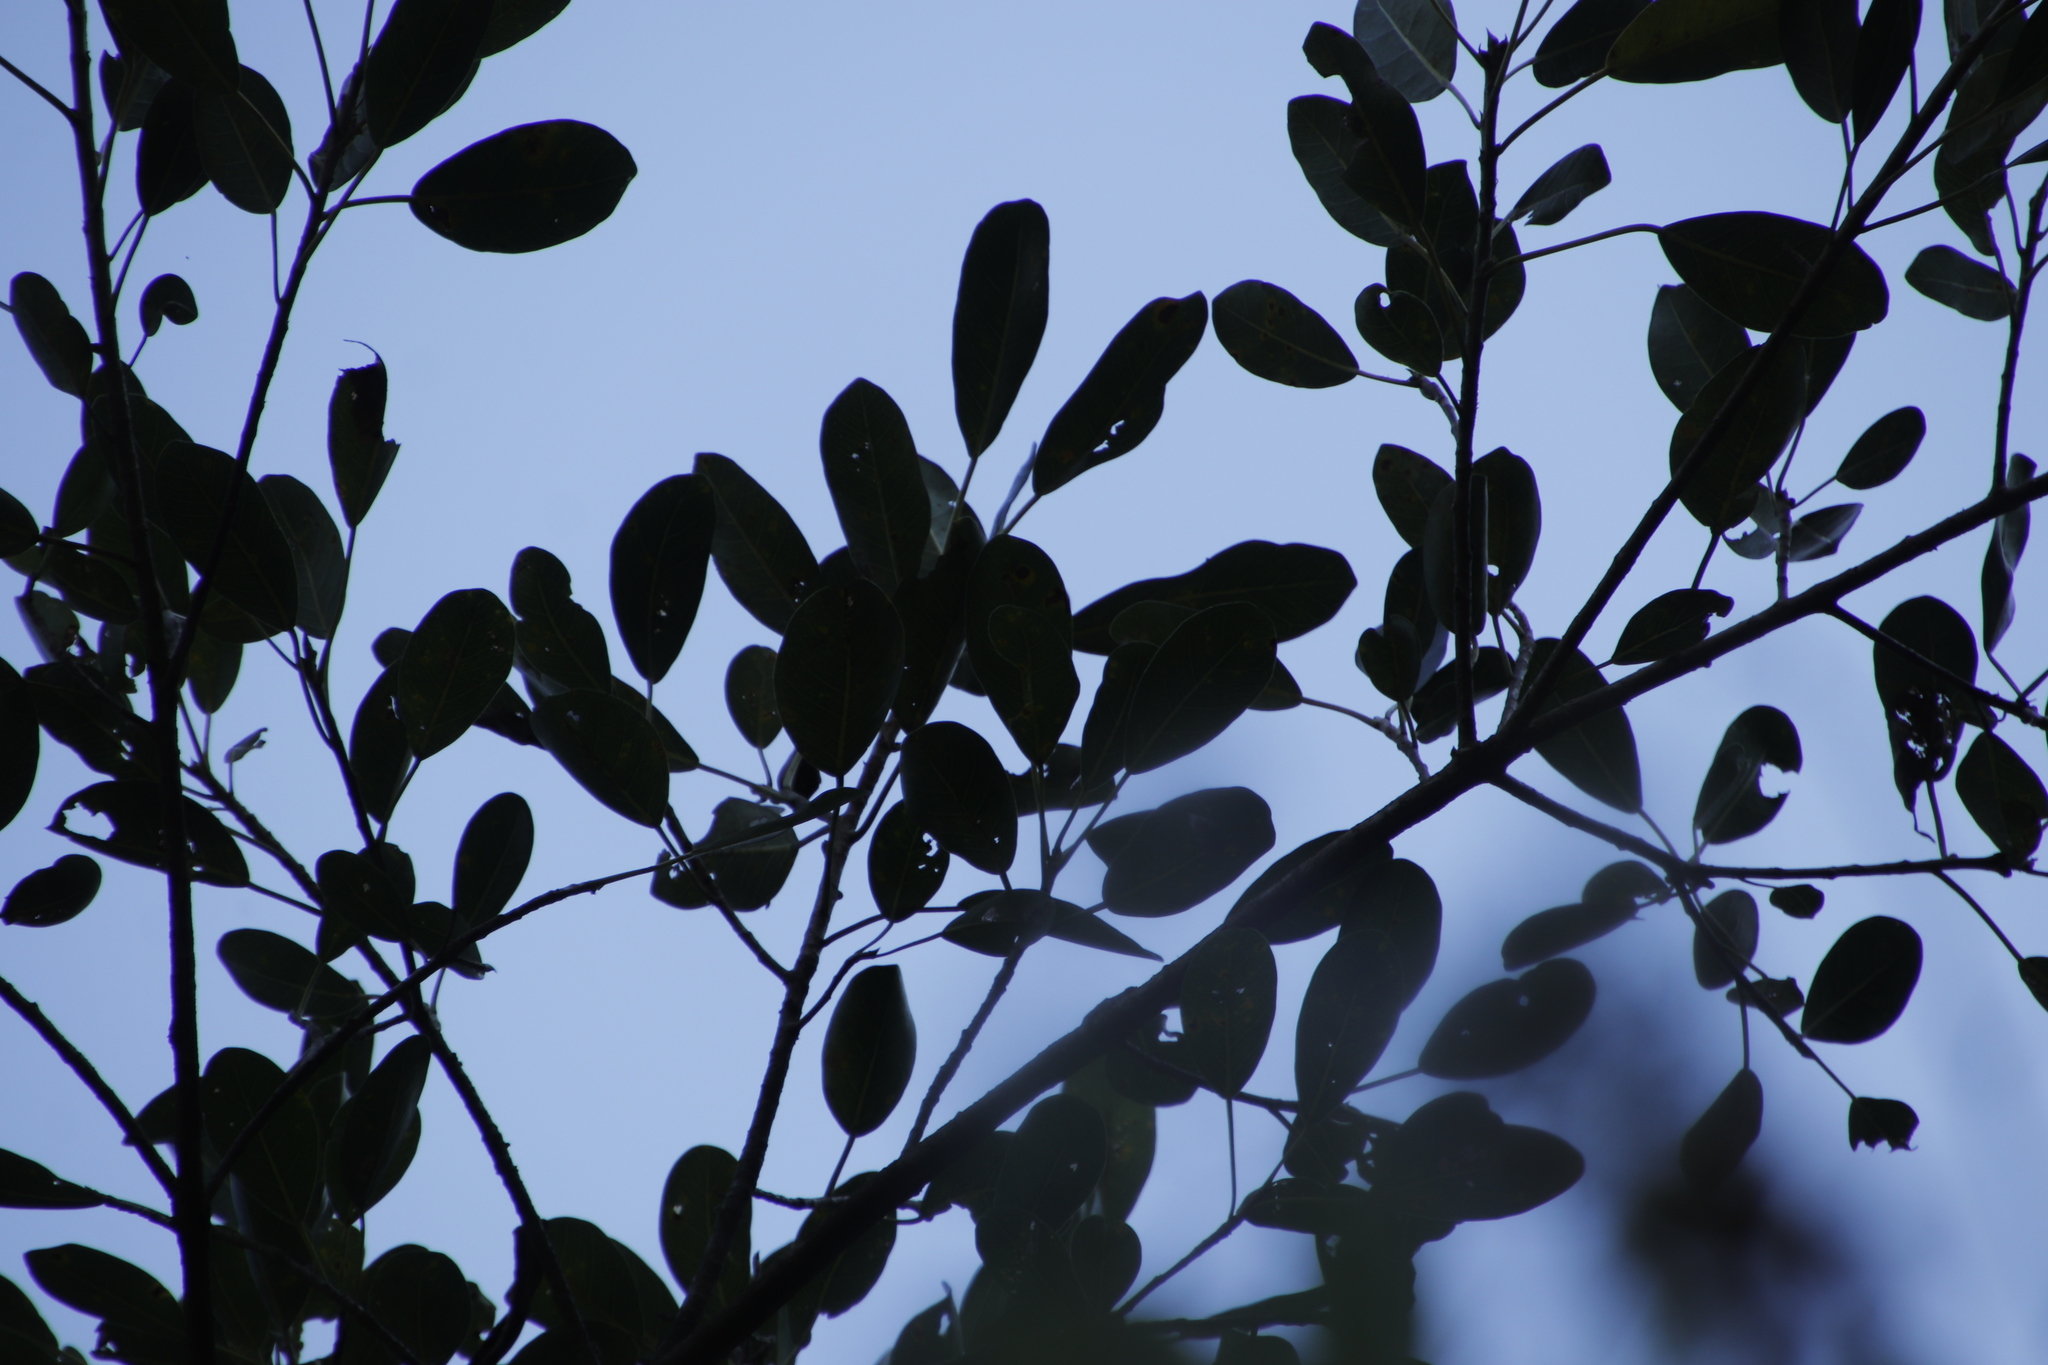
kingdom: Plantae
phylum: Tracheophyta
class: Magnoliopsida
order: Rosales
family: Moraceae
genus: Ficus
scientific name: Ficus thonningii
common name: Fig
